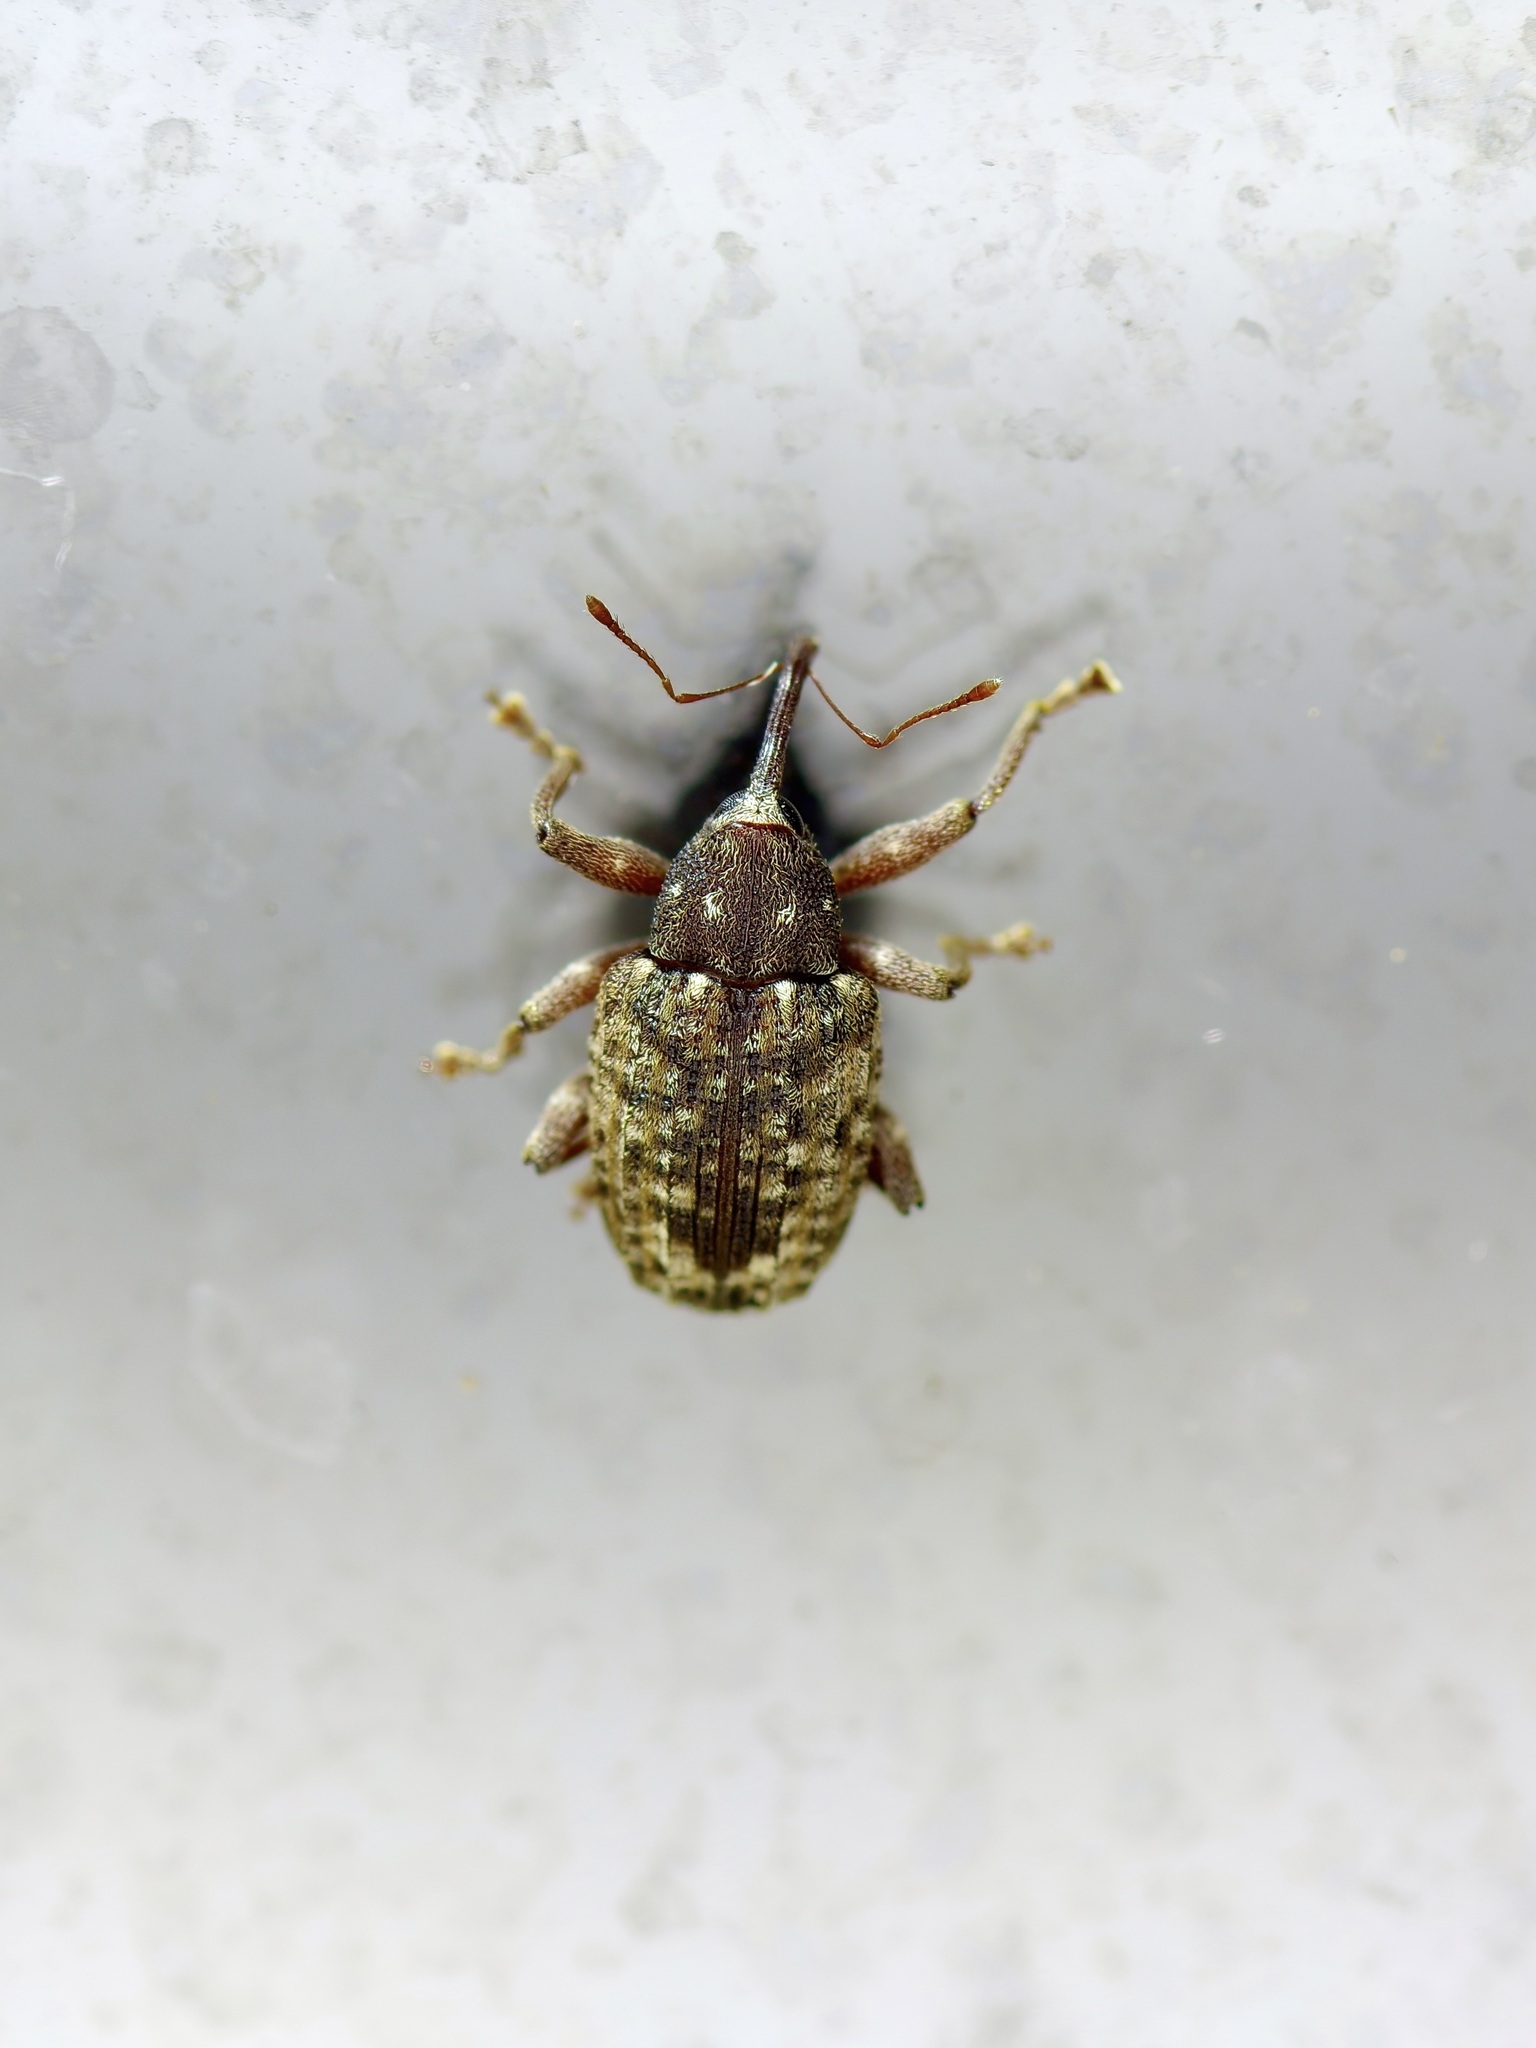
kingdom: Animalia
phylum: Arthropoda
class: Insecta
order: Coleoptera
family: Curculionidae
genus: Conotrachelus
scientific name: Conotrachelus naso
